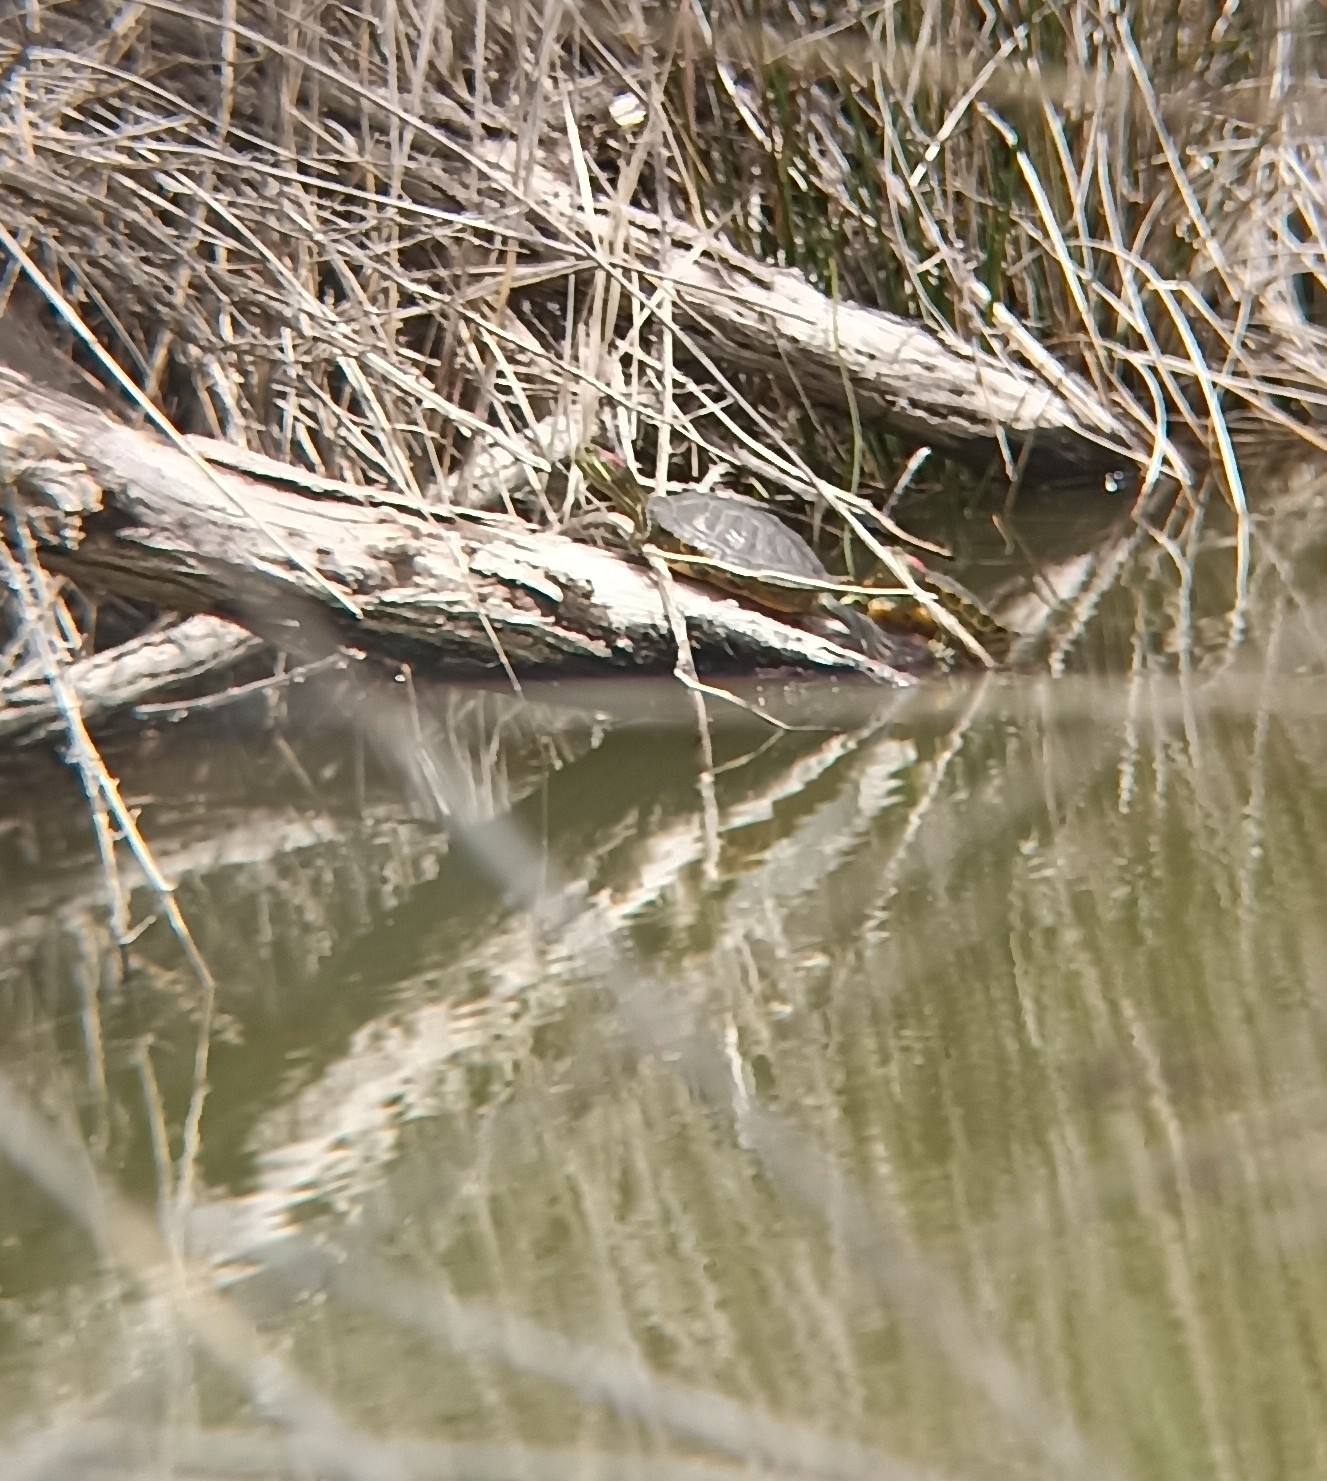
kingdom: Animalia
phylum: Chordata
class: Testudines
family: Emydidae
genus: Trachemys
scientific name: Trachemys scripta
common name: Slider
